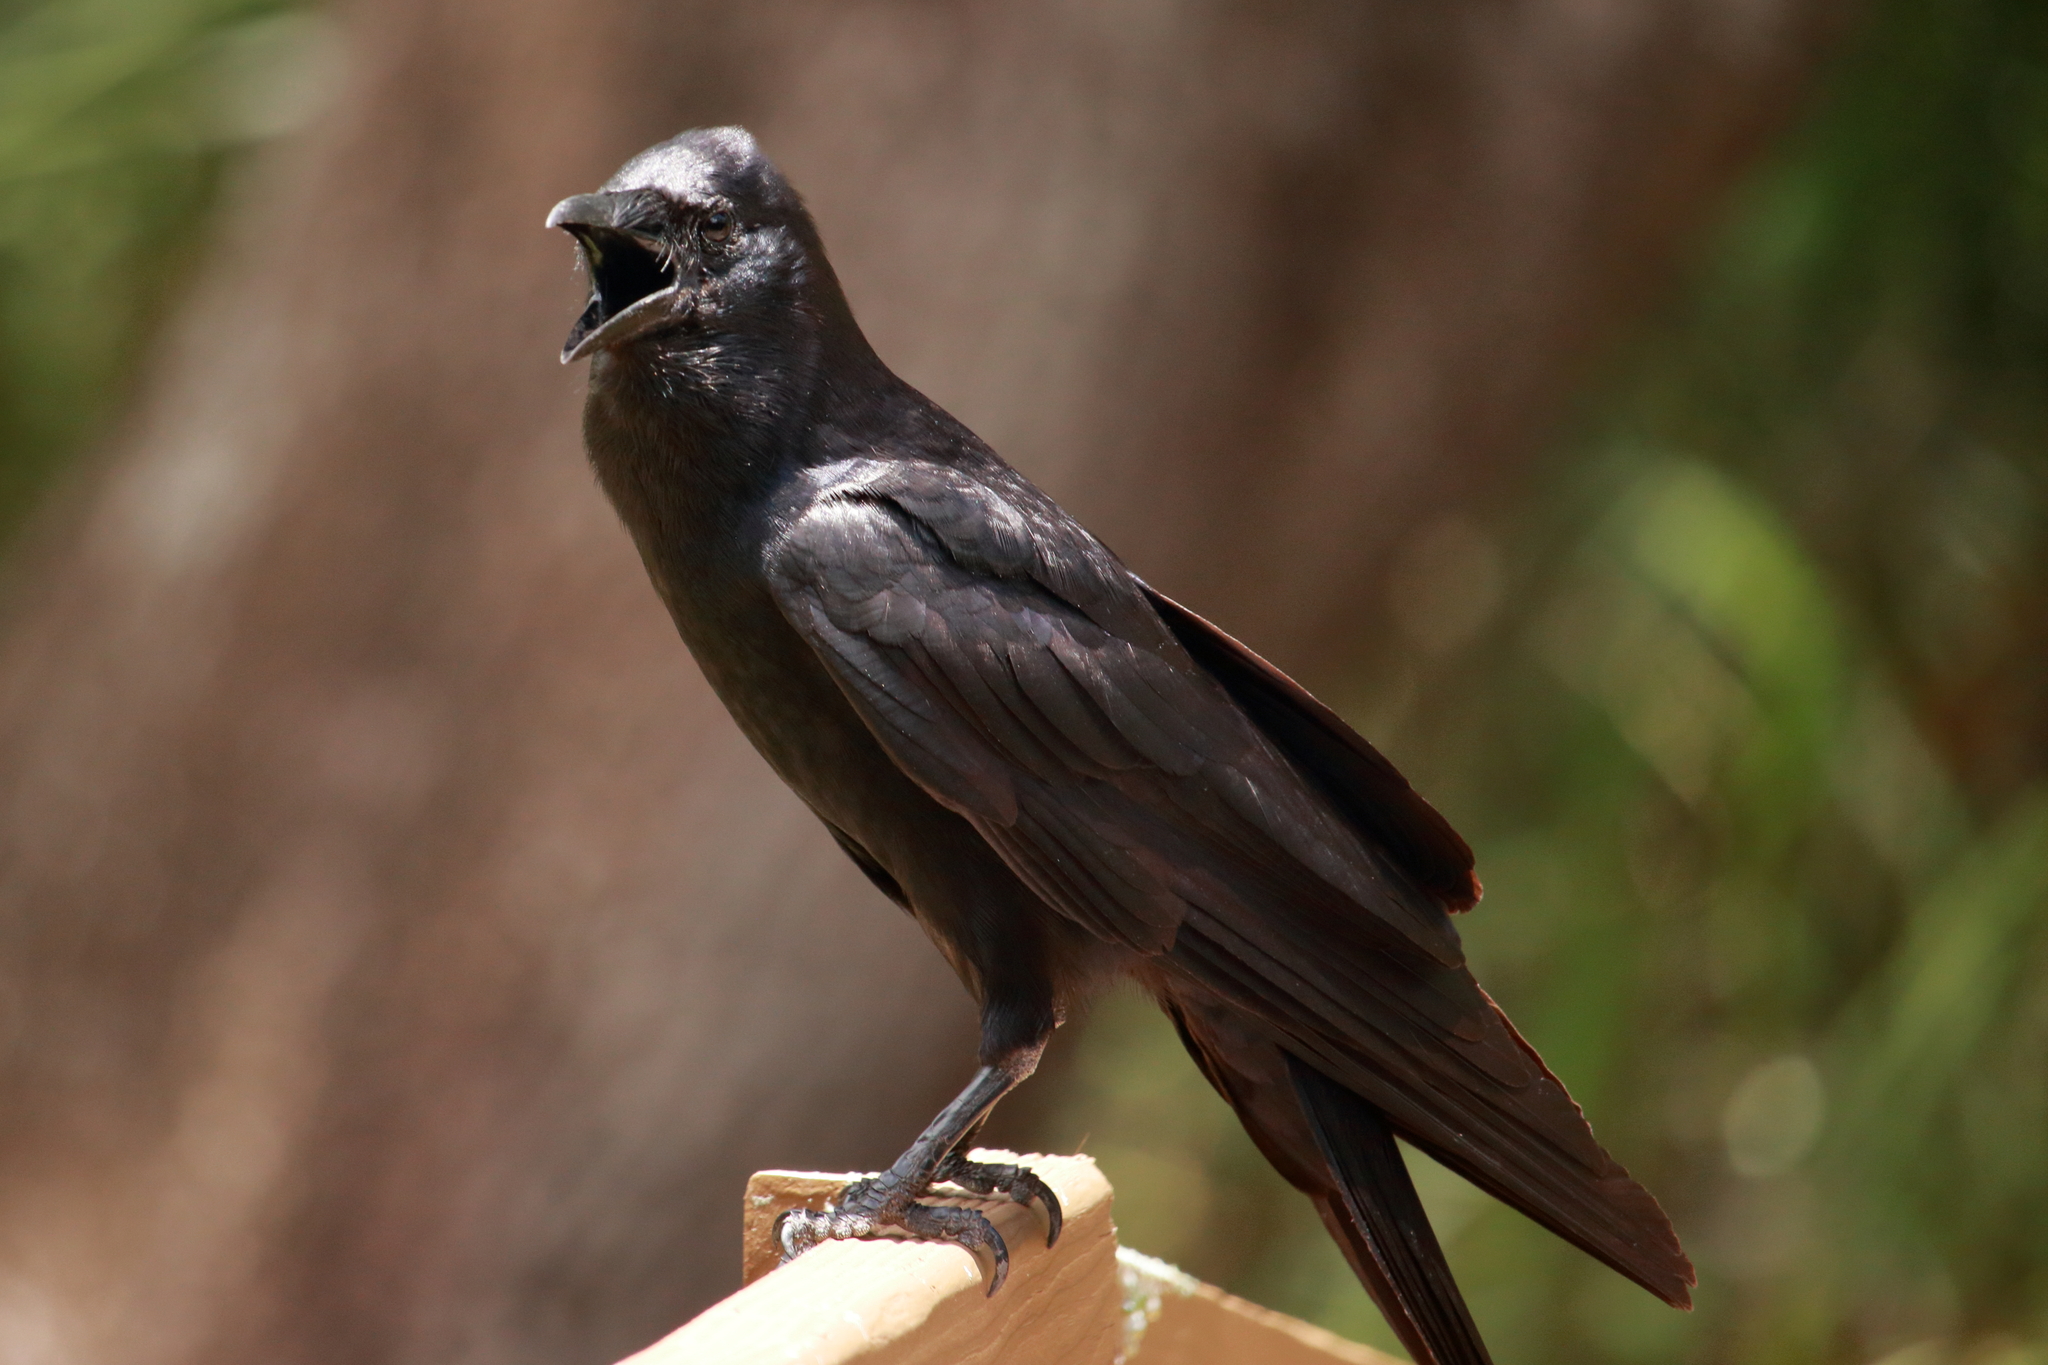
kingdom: Animalia
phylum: Chordata
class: Aves
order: Passeriformes
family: Corvidae
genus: Corvus
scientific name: Corvus brachyrhynchos
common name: American crow
